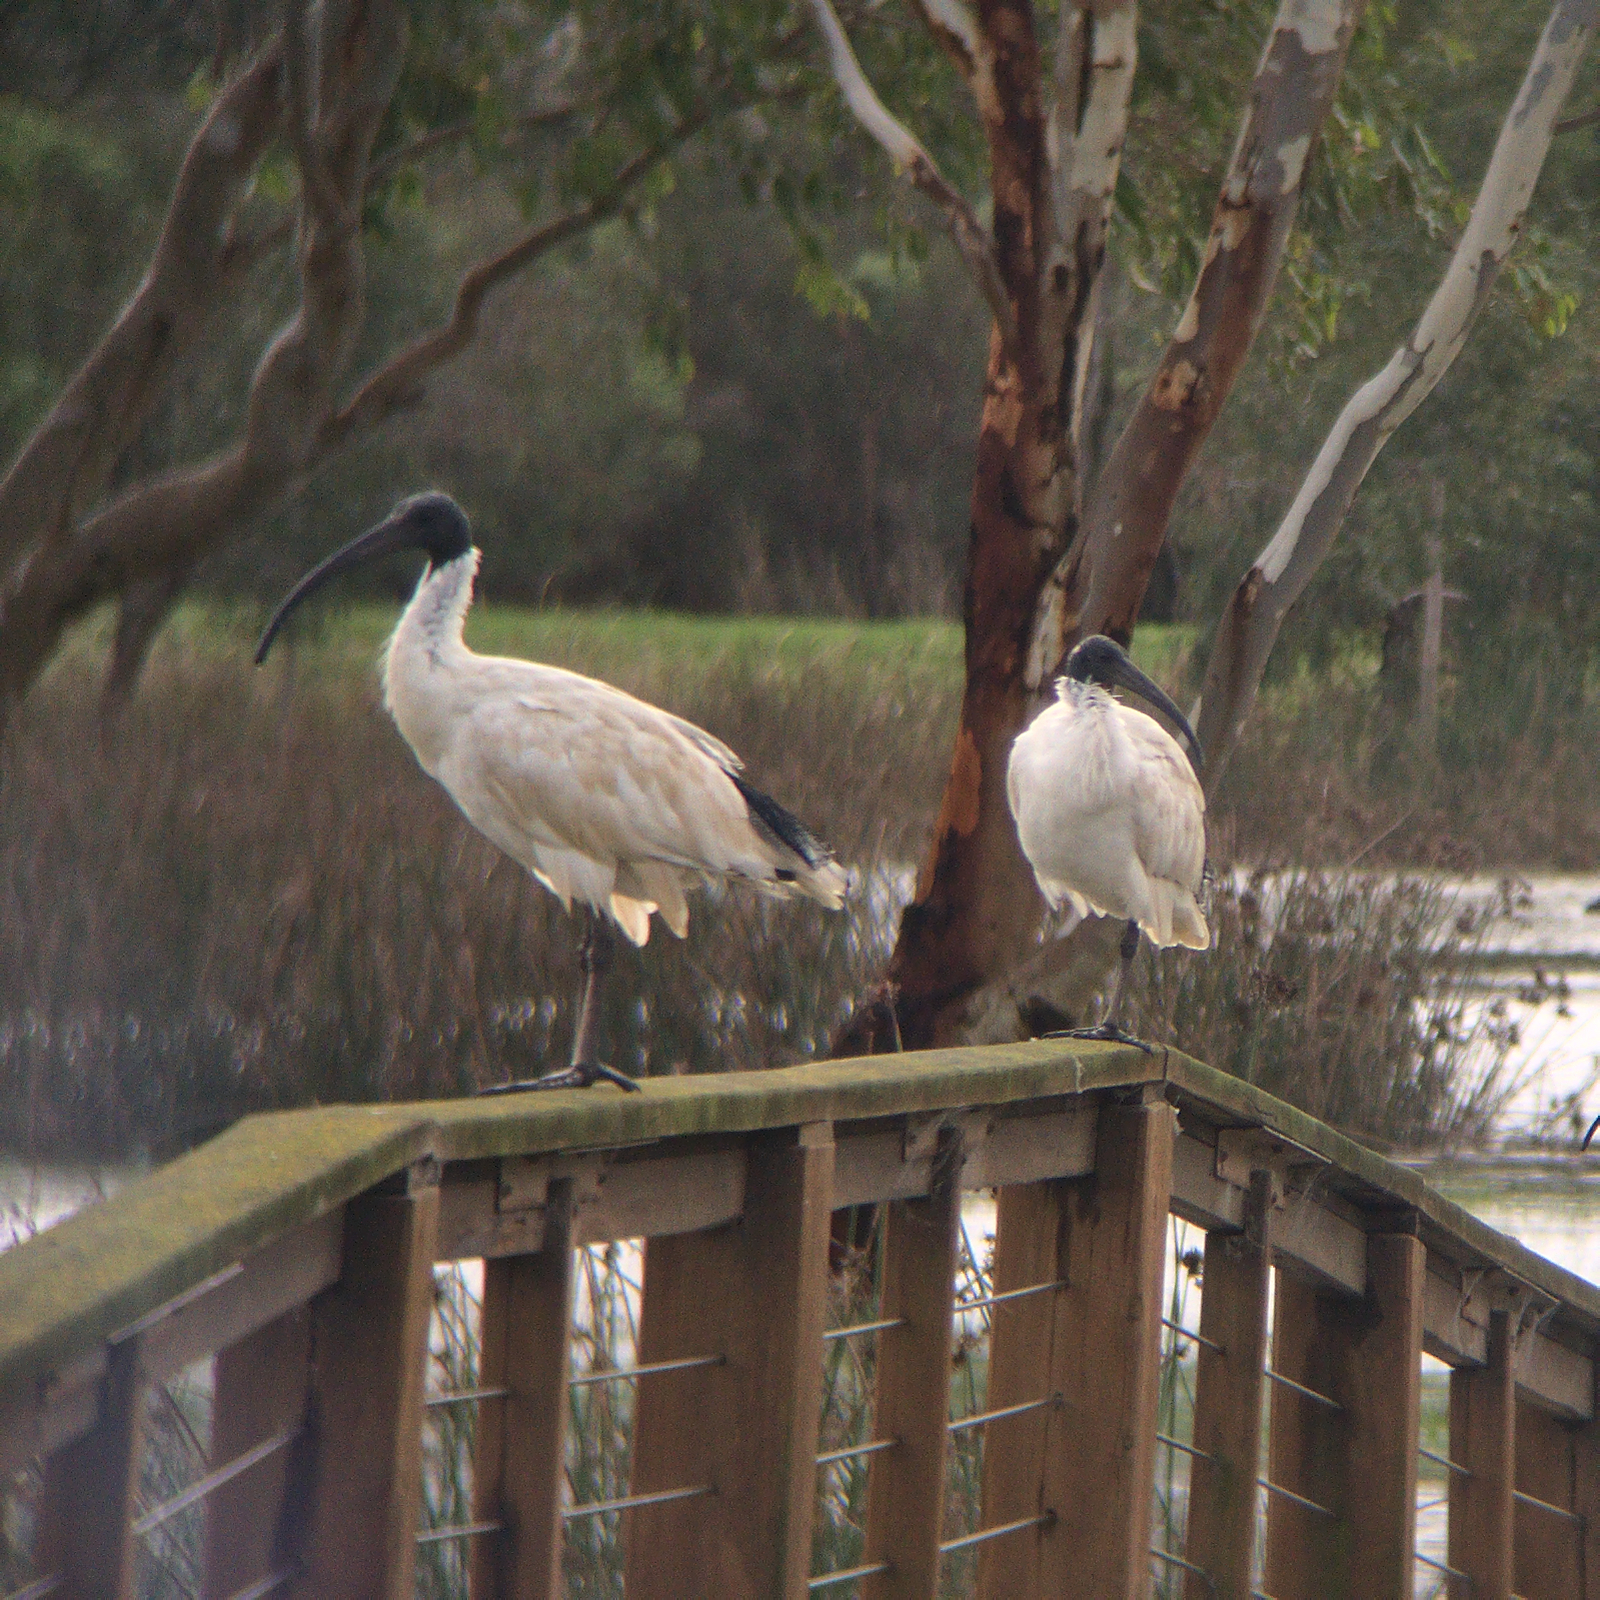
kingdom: Animalia
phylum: Chordata
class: Aves
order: Pelecaniformes
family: Threskiornithidae
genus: Threskiornis
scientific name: Threskiornis molucca
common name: Australian white ibis
